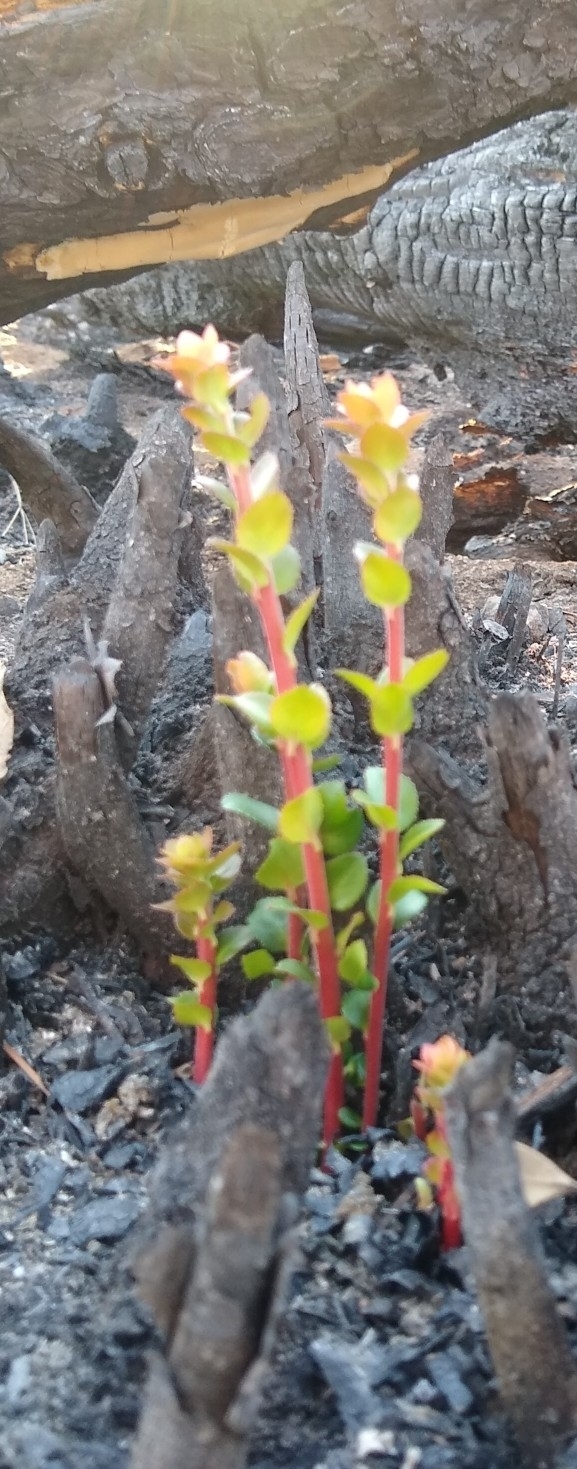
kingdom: Plantae
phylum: Tracheophyta
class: Magnoliopsida
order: Ericales
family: Ericaceae
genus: Vaccinium
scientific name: Vaccinium ovatum
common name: California-huckleberry
